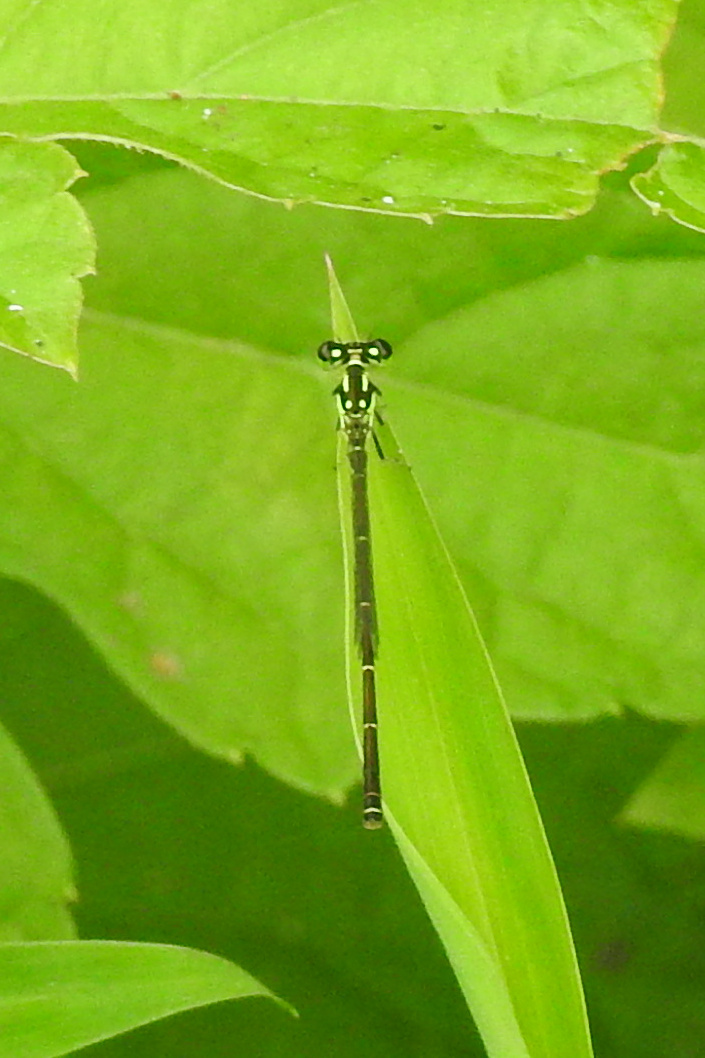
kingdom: Animalia
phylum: Arthropoda
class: Insecta
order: Odonata
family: Coenagrionidae
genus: Ischnura
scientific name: Ischnura posita
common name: Fragile forktail
